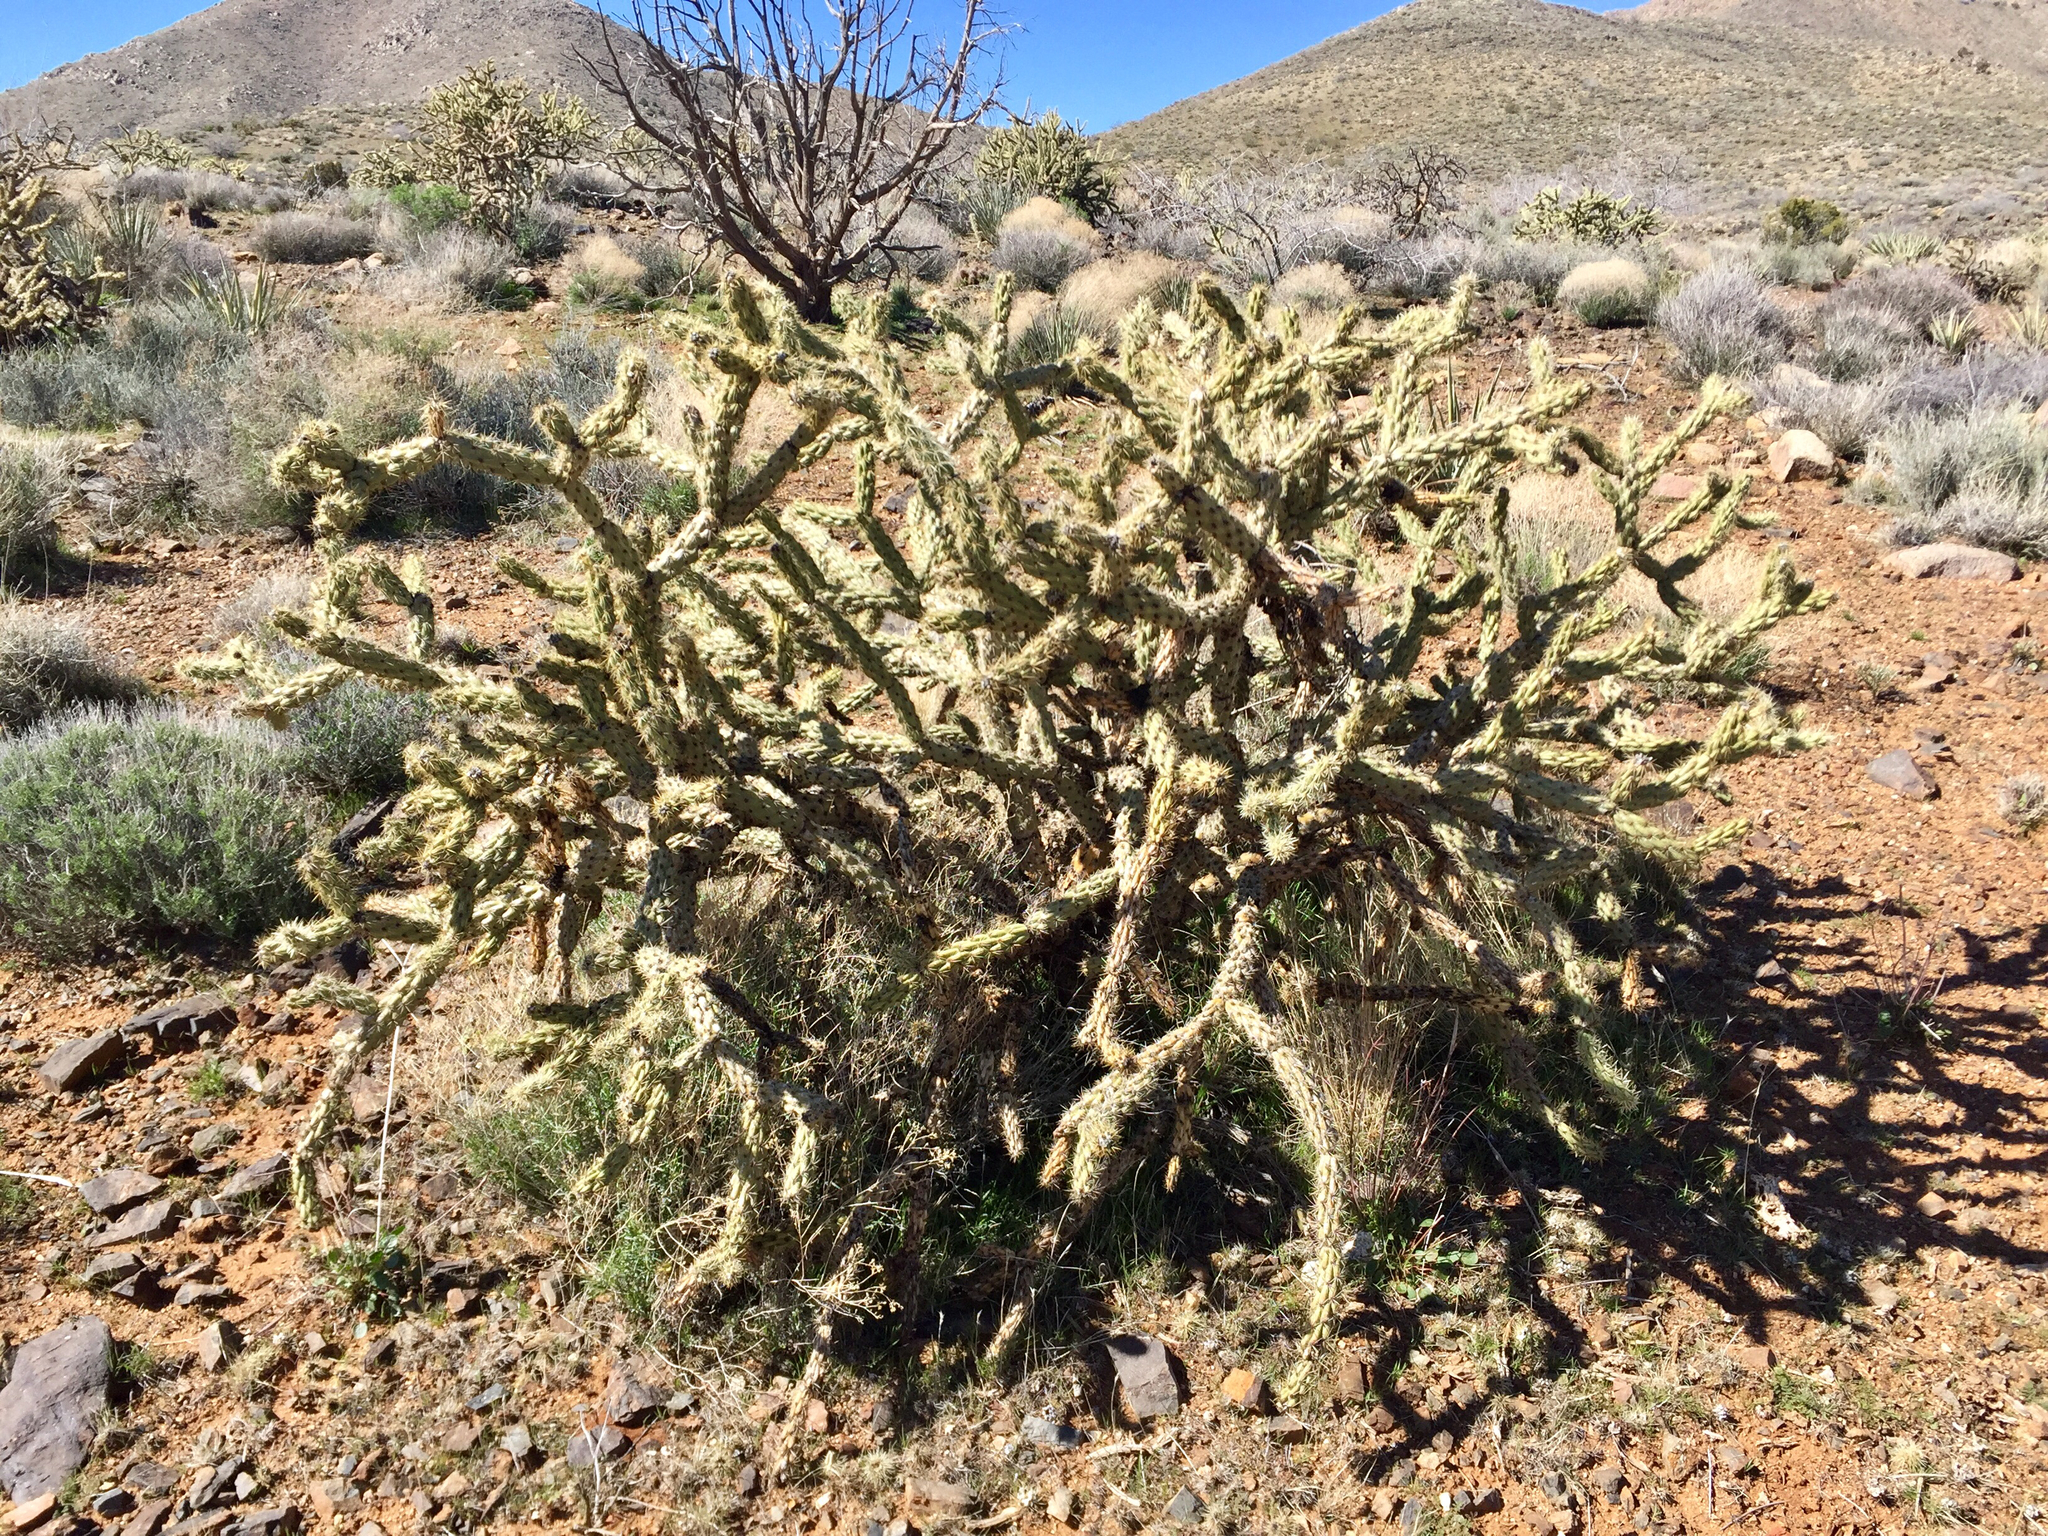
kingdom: Plantae
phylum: Tracheophyta
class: Magnoliopsida
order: Caryophyllales
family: Cactaceae
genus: Cylindropuntia
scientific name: Cylindropuntia acanthocarpa
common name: Buckhorn cholla
